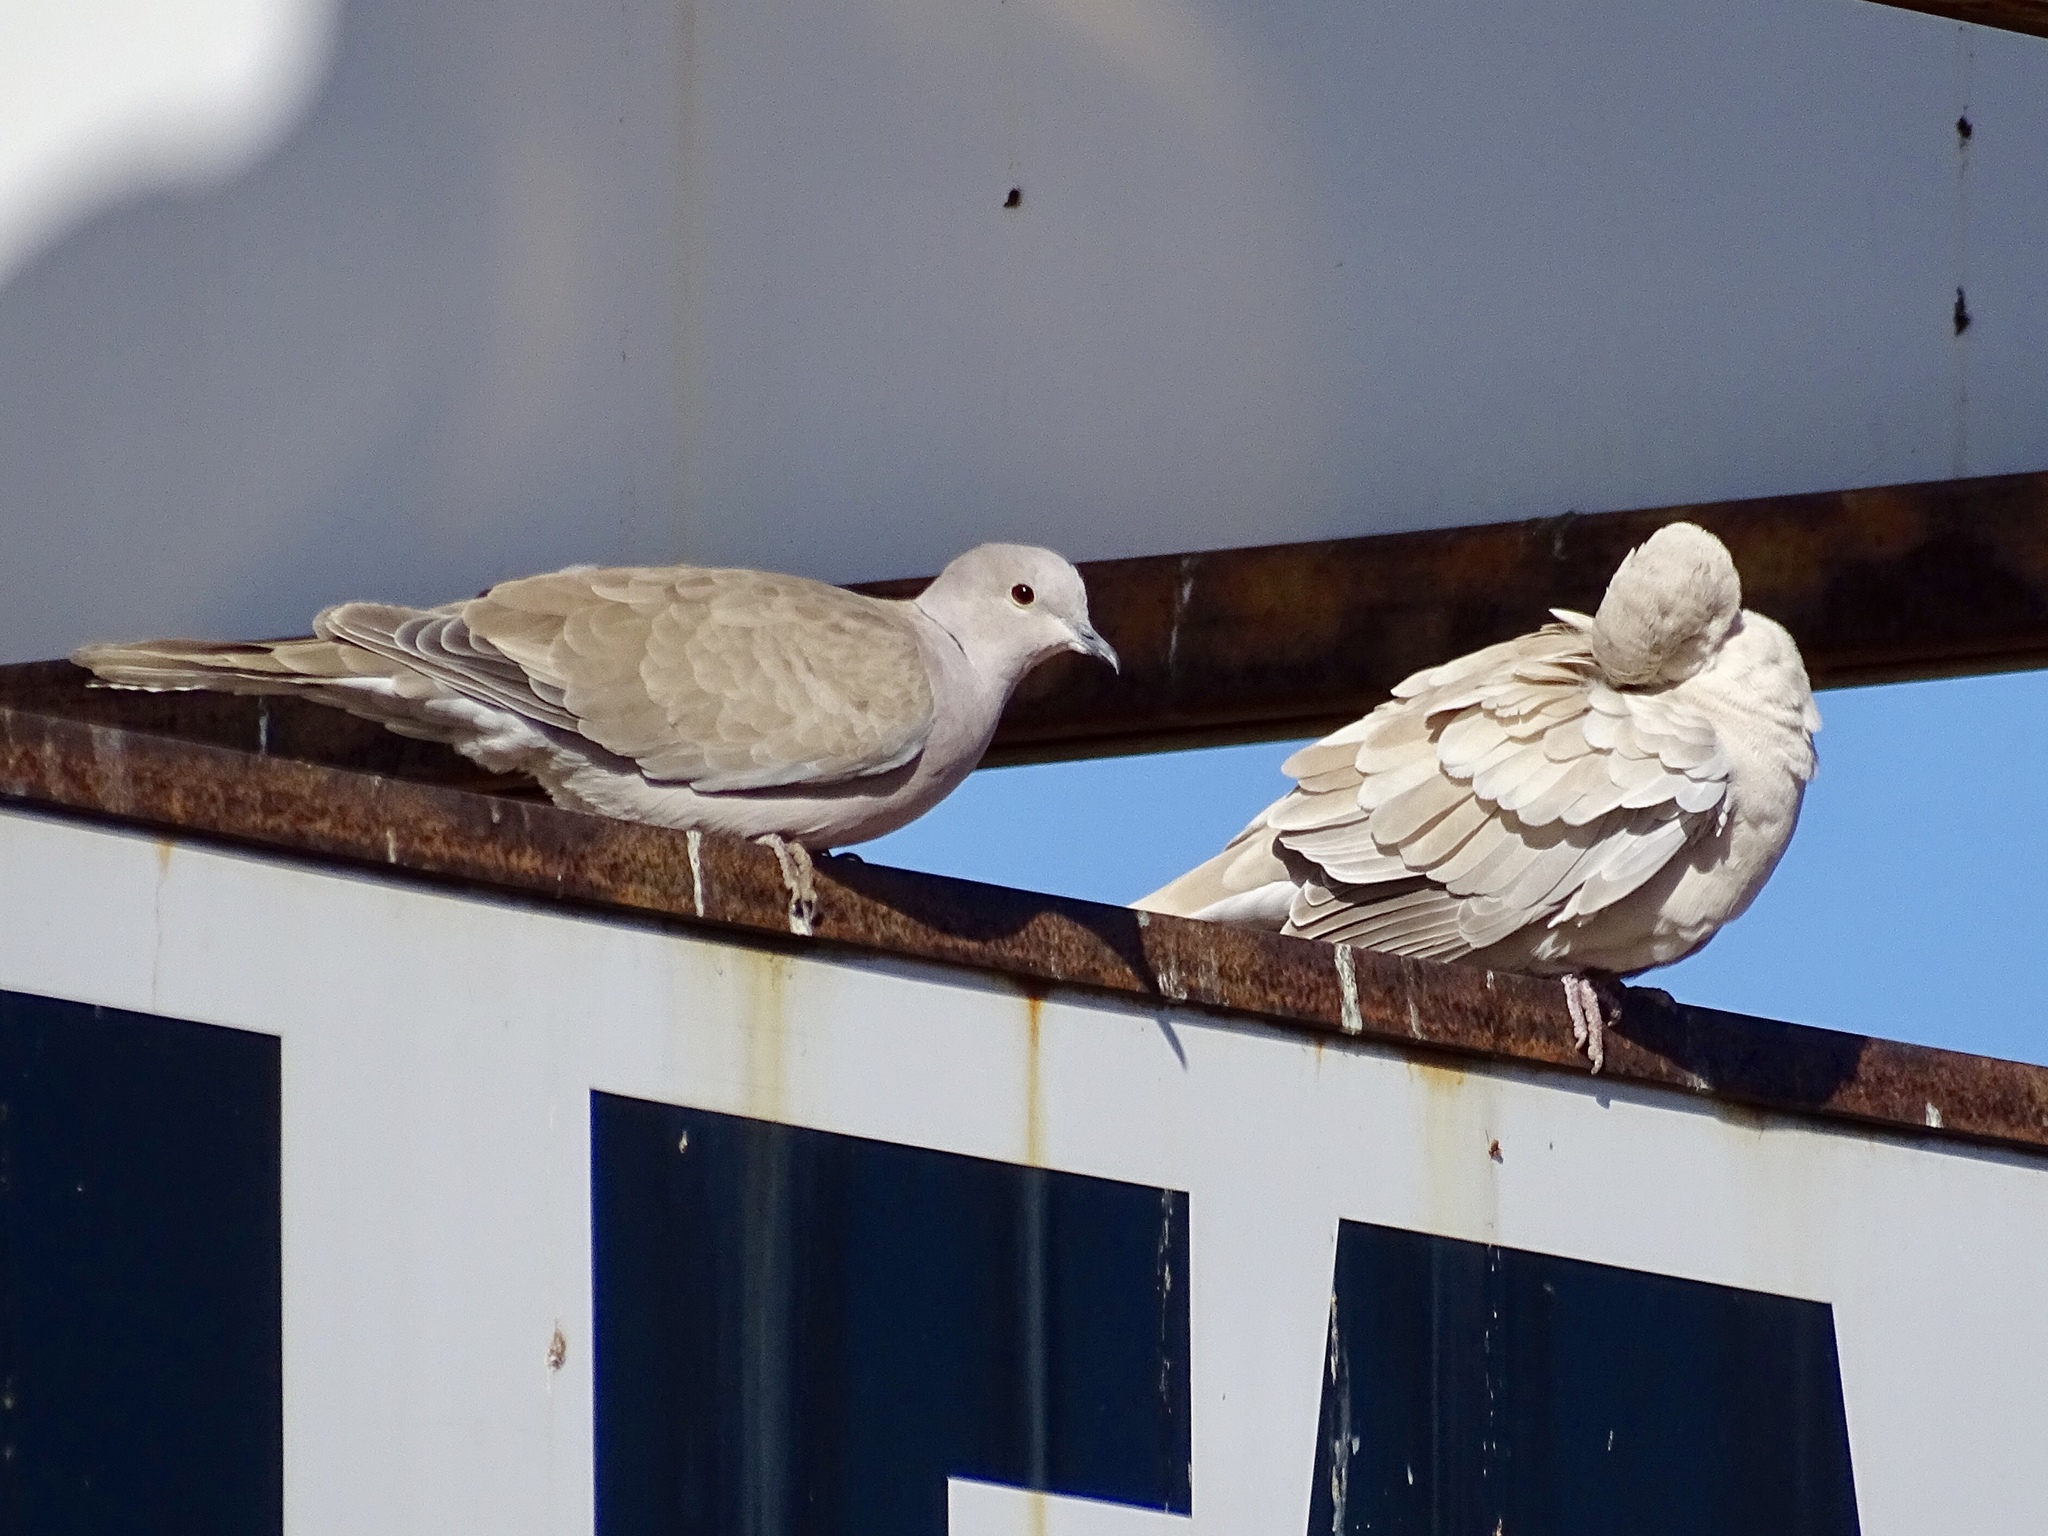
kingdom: Animalia
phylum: Chordata
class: Aves
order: Columbiformes
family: Columbidae
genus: Streptopelia
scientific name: Streptopelia decaocto
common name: Eurasian collared dove
